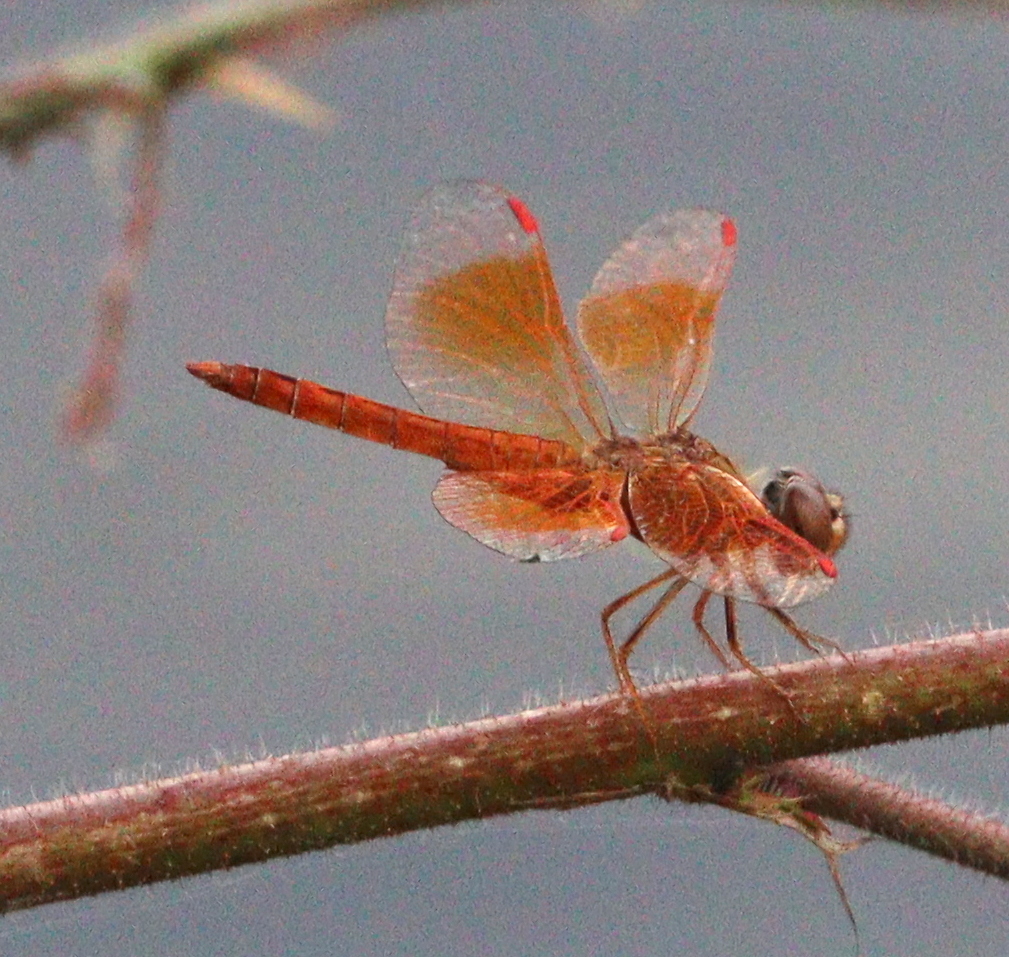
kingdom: Animalia
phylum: Arthropoda
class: Insecta
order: Odonata
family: Libellulidae
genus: Brachythemis
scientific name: Brachythemis contaminata
